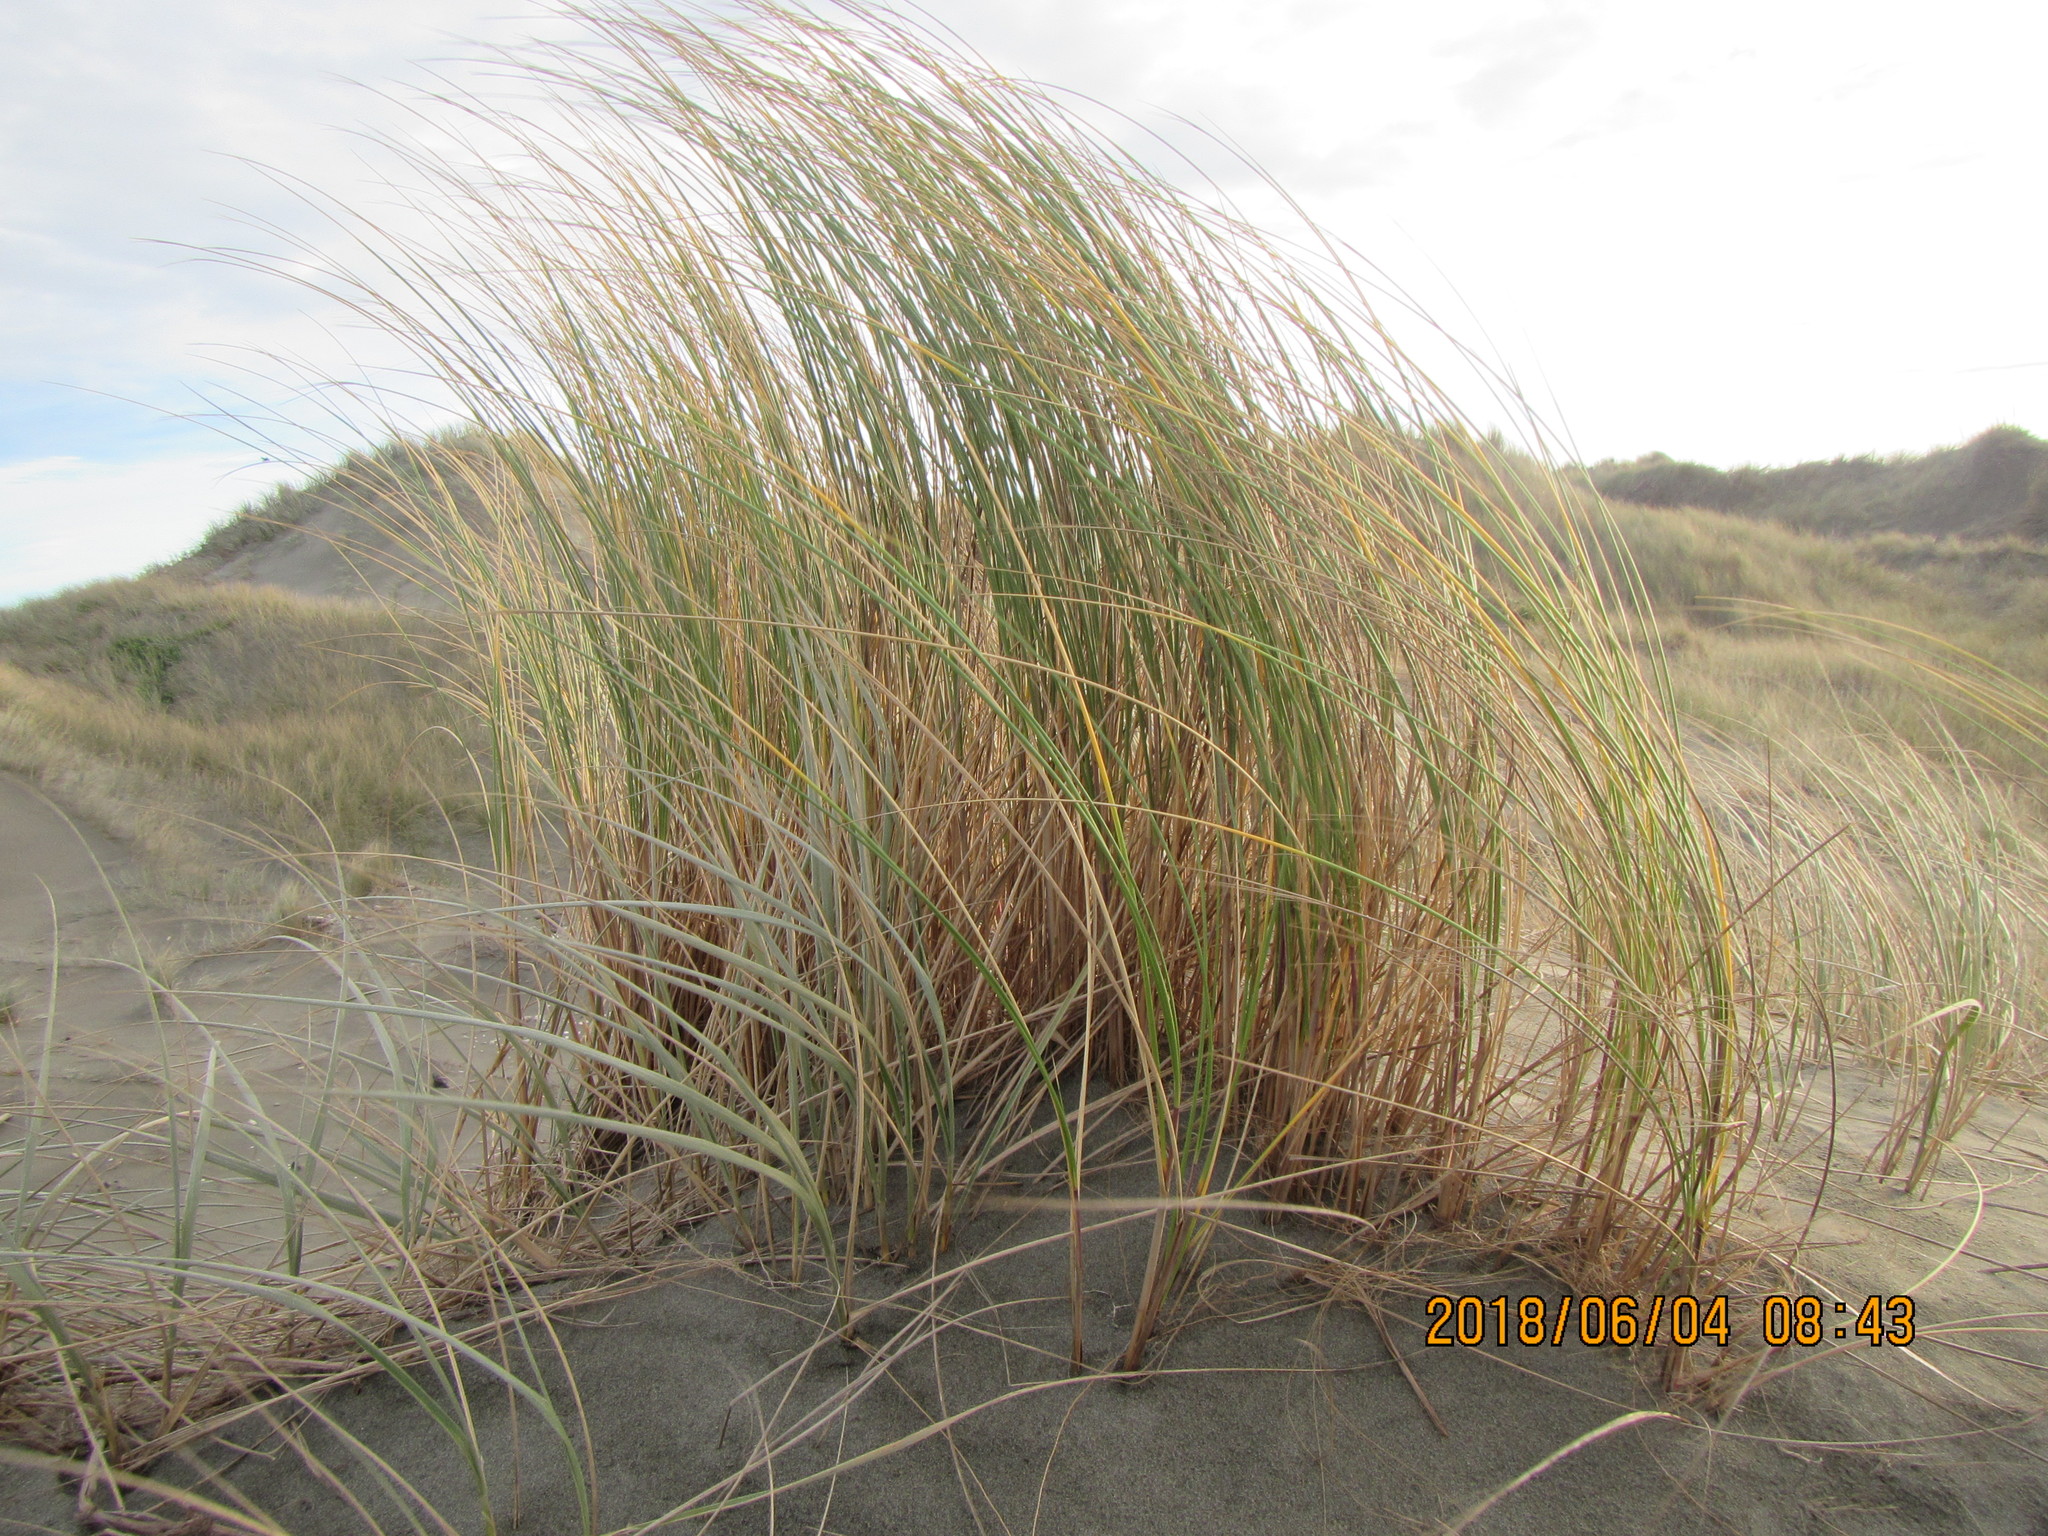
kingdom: Plantae
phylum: Tracheophyta
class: Liliopsida
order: Poales
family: Poaceae
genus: Calamagrostis
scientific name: Calamagrostis arenaria
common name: European beachgrass
